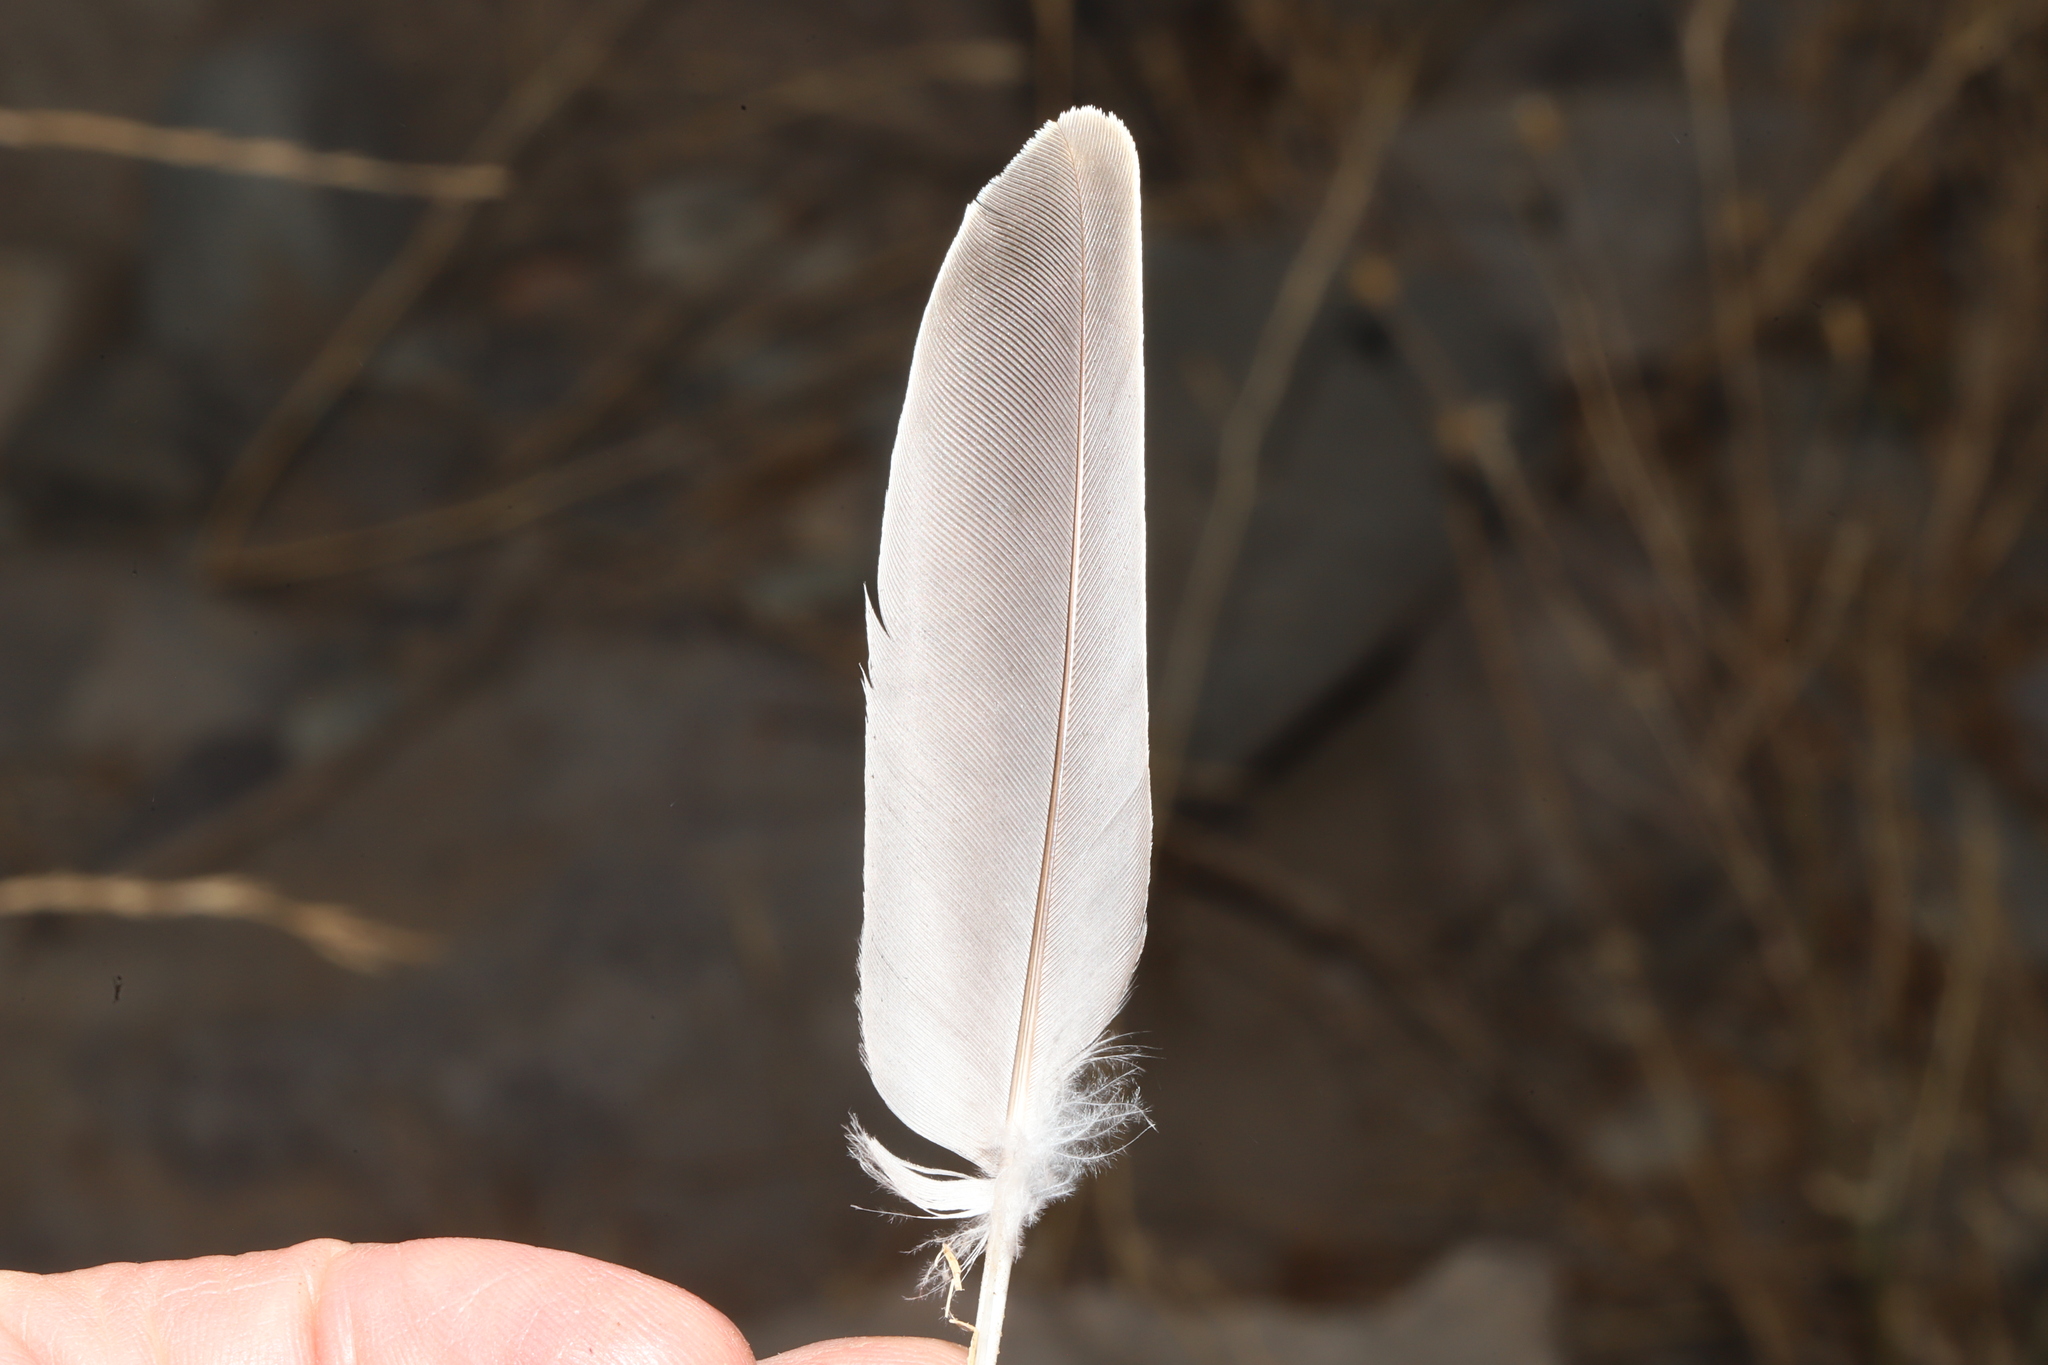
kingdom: Animalia
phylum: Chordata
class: Aves
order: Columbiformes
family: Columbidae
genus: Columba
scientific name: Columba livia
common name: Rock pigeon
